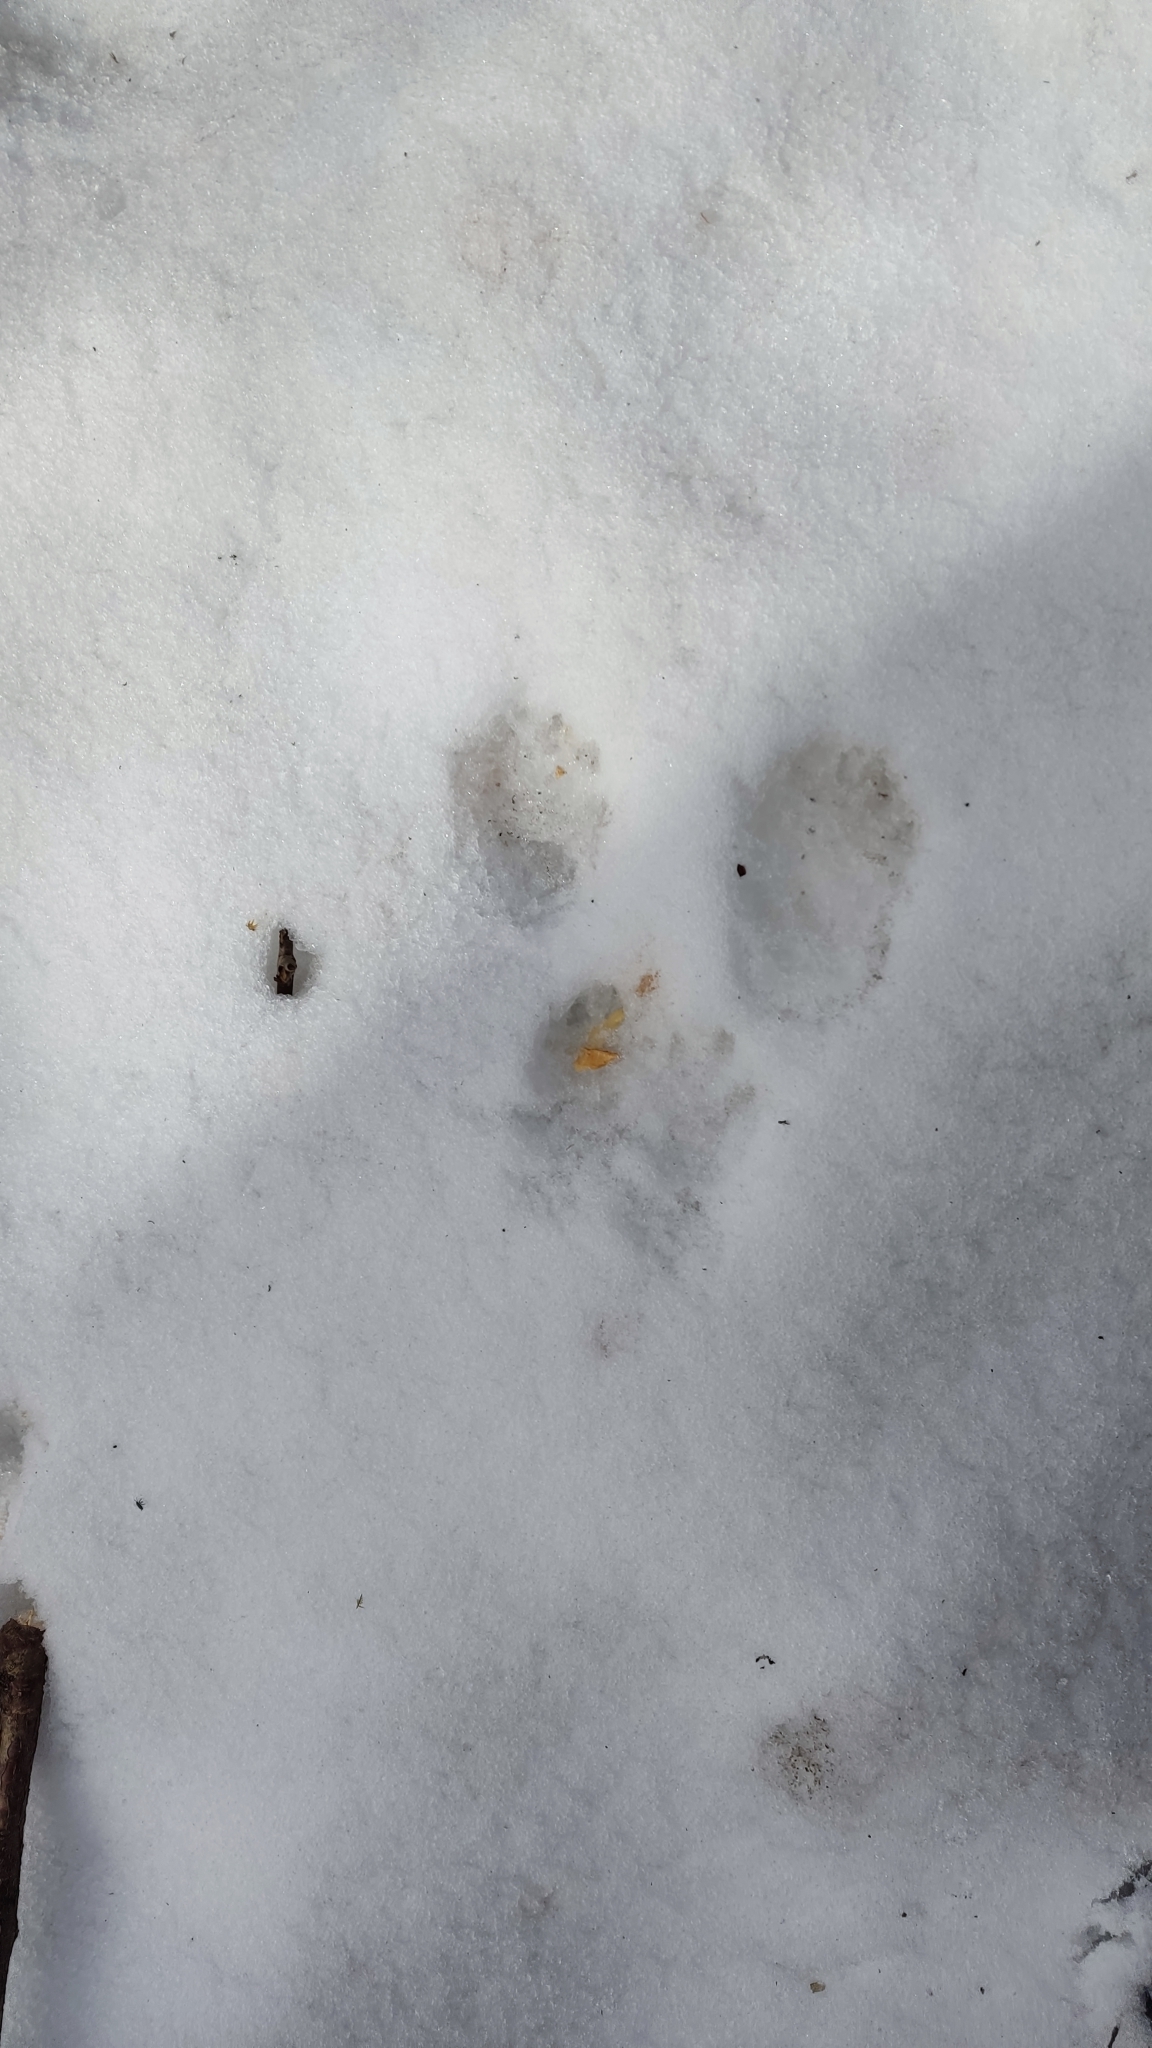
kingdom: Animalia
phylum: Chordata
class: Mammalia
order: Rodentia
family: Sciuridae
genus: Sciurus
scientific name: Sciurus vulgaris
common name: Eurasian red squirrel
